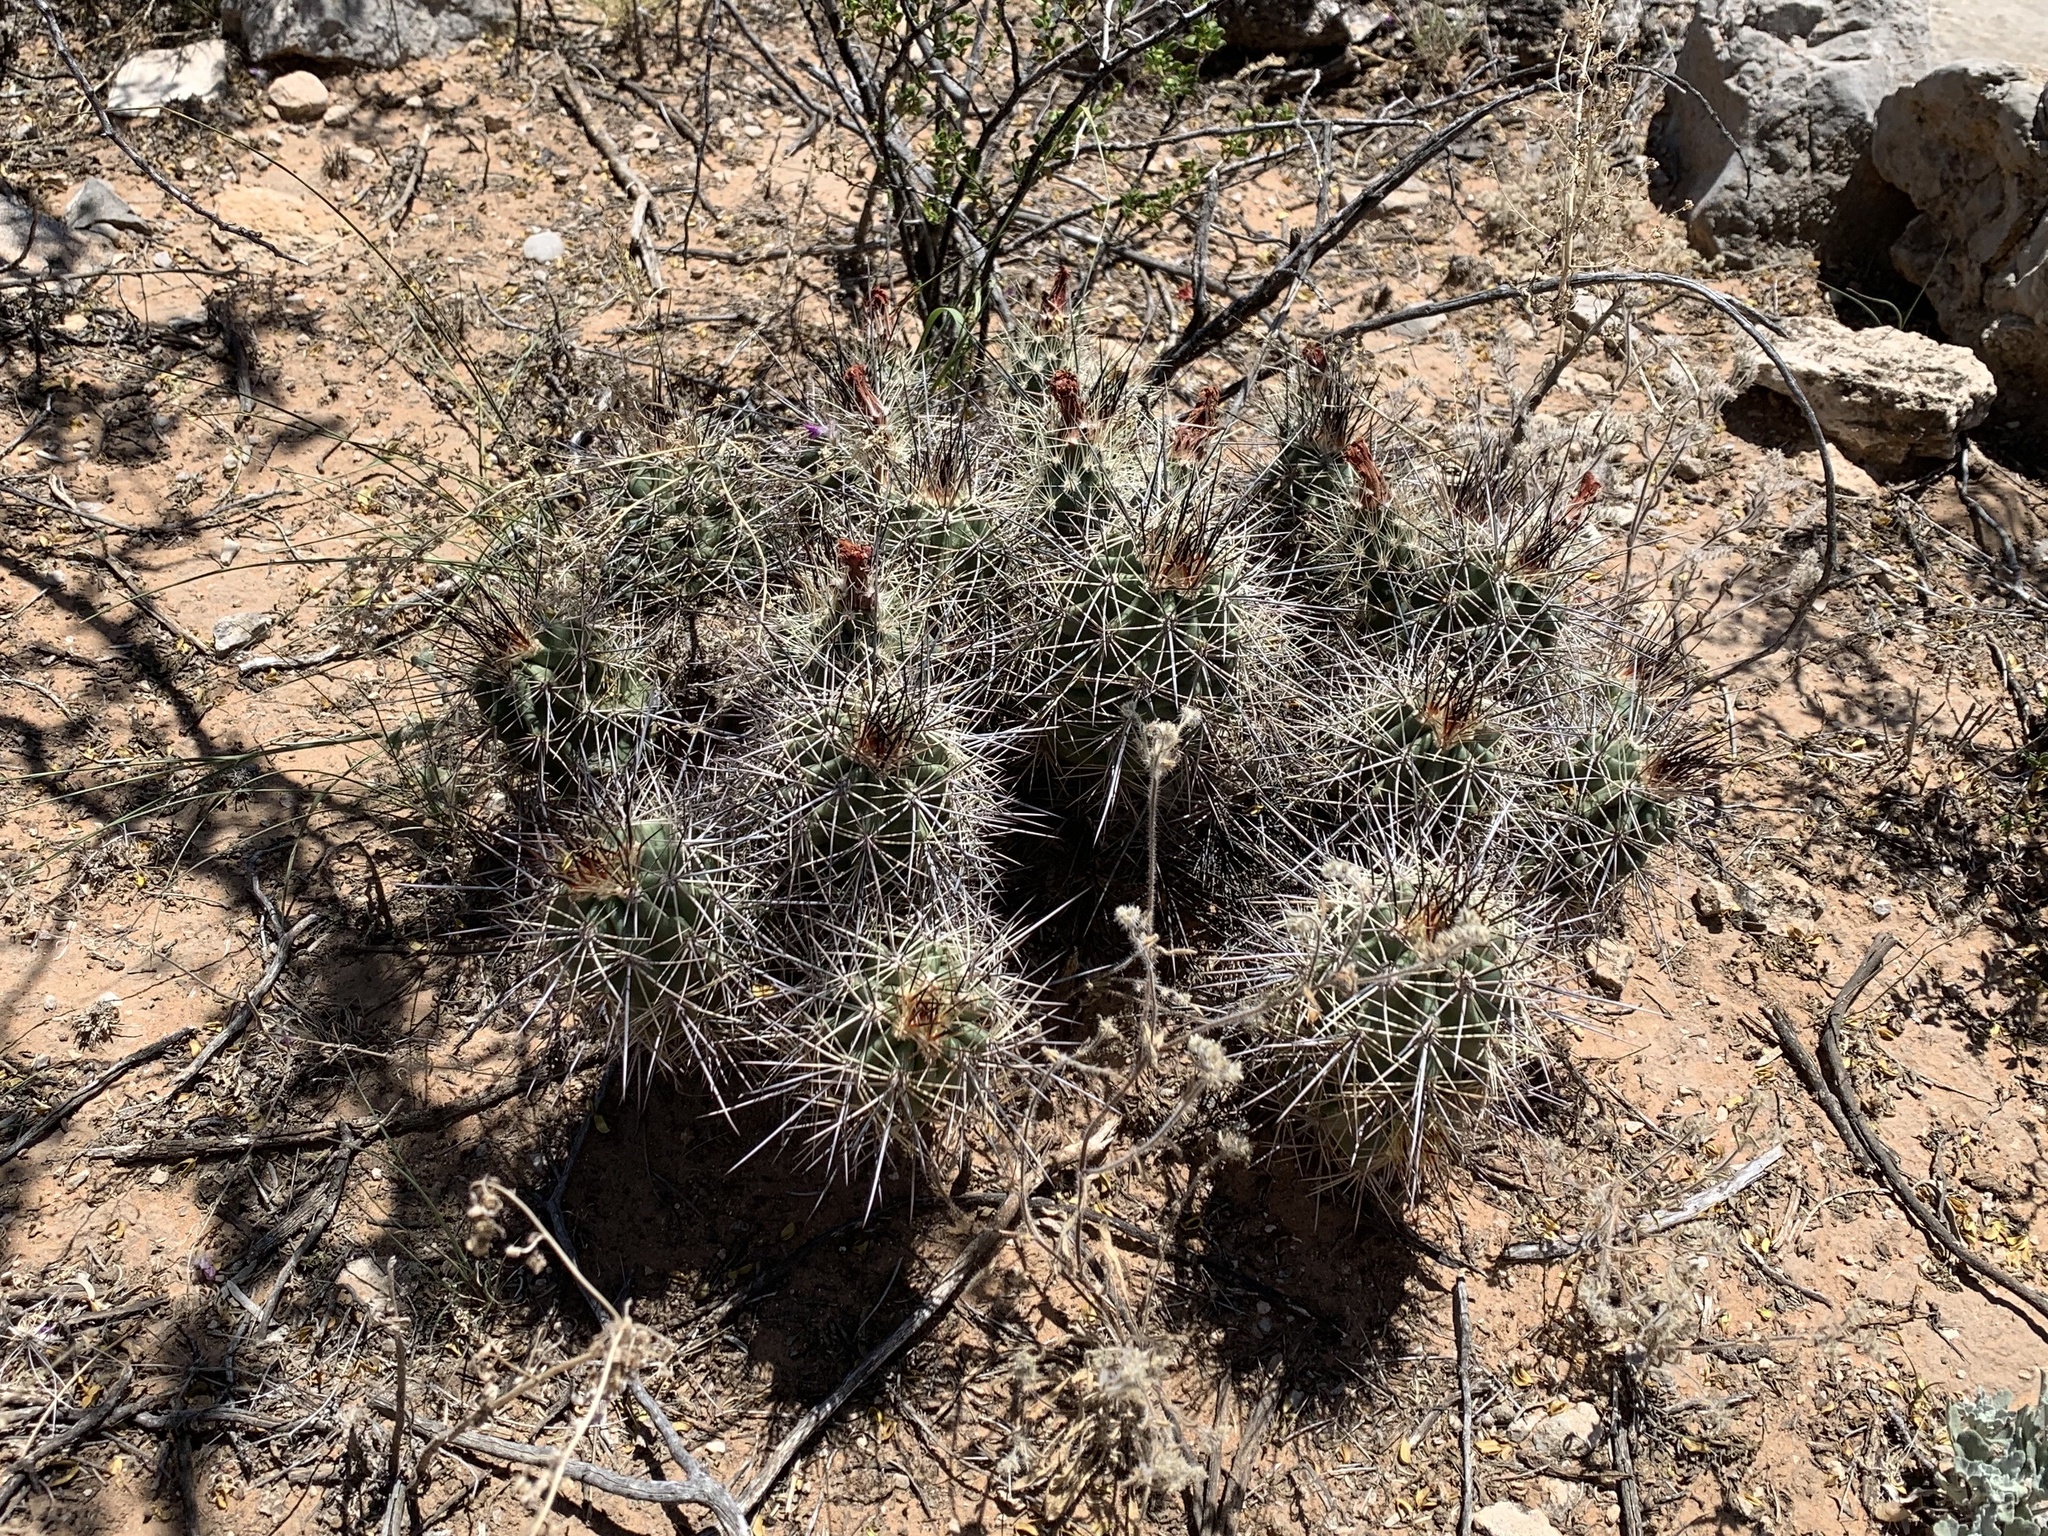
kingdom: Plantae
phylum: Tracheophyta
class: Magnoliopsida
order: Caryophyllales
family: Cactaceae
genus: Echinocereus
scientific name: Echinocereus coccineus
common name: Scarlet hedgehog cactus
